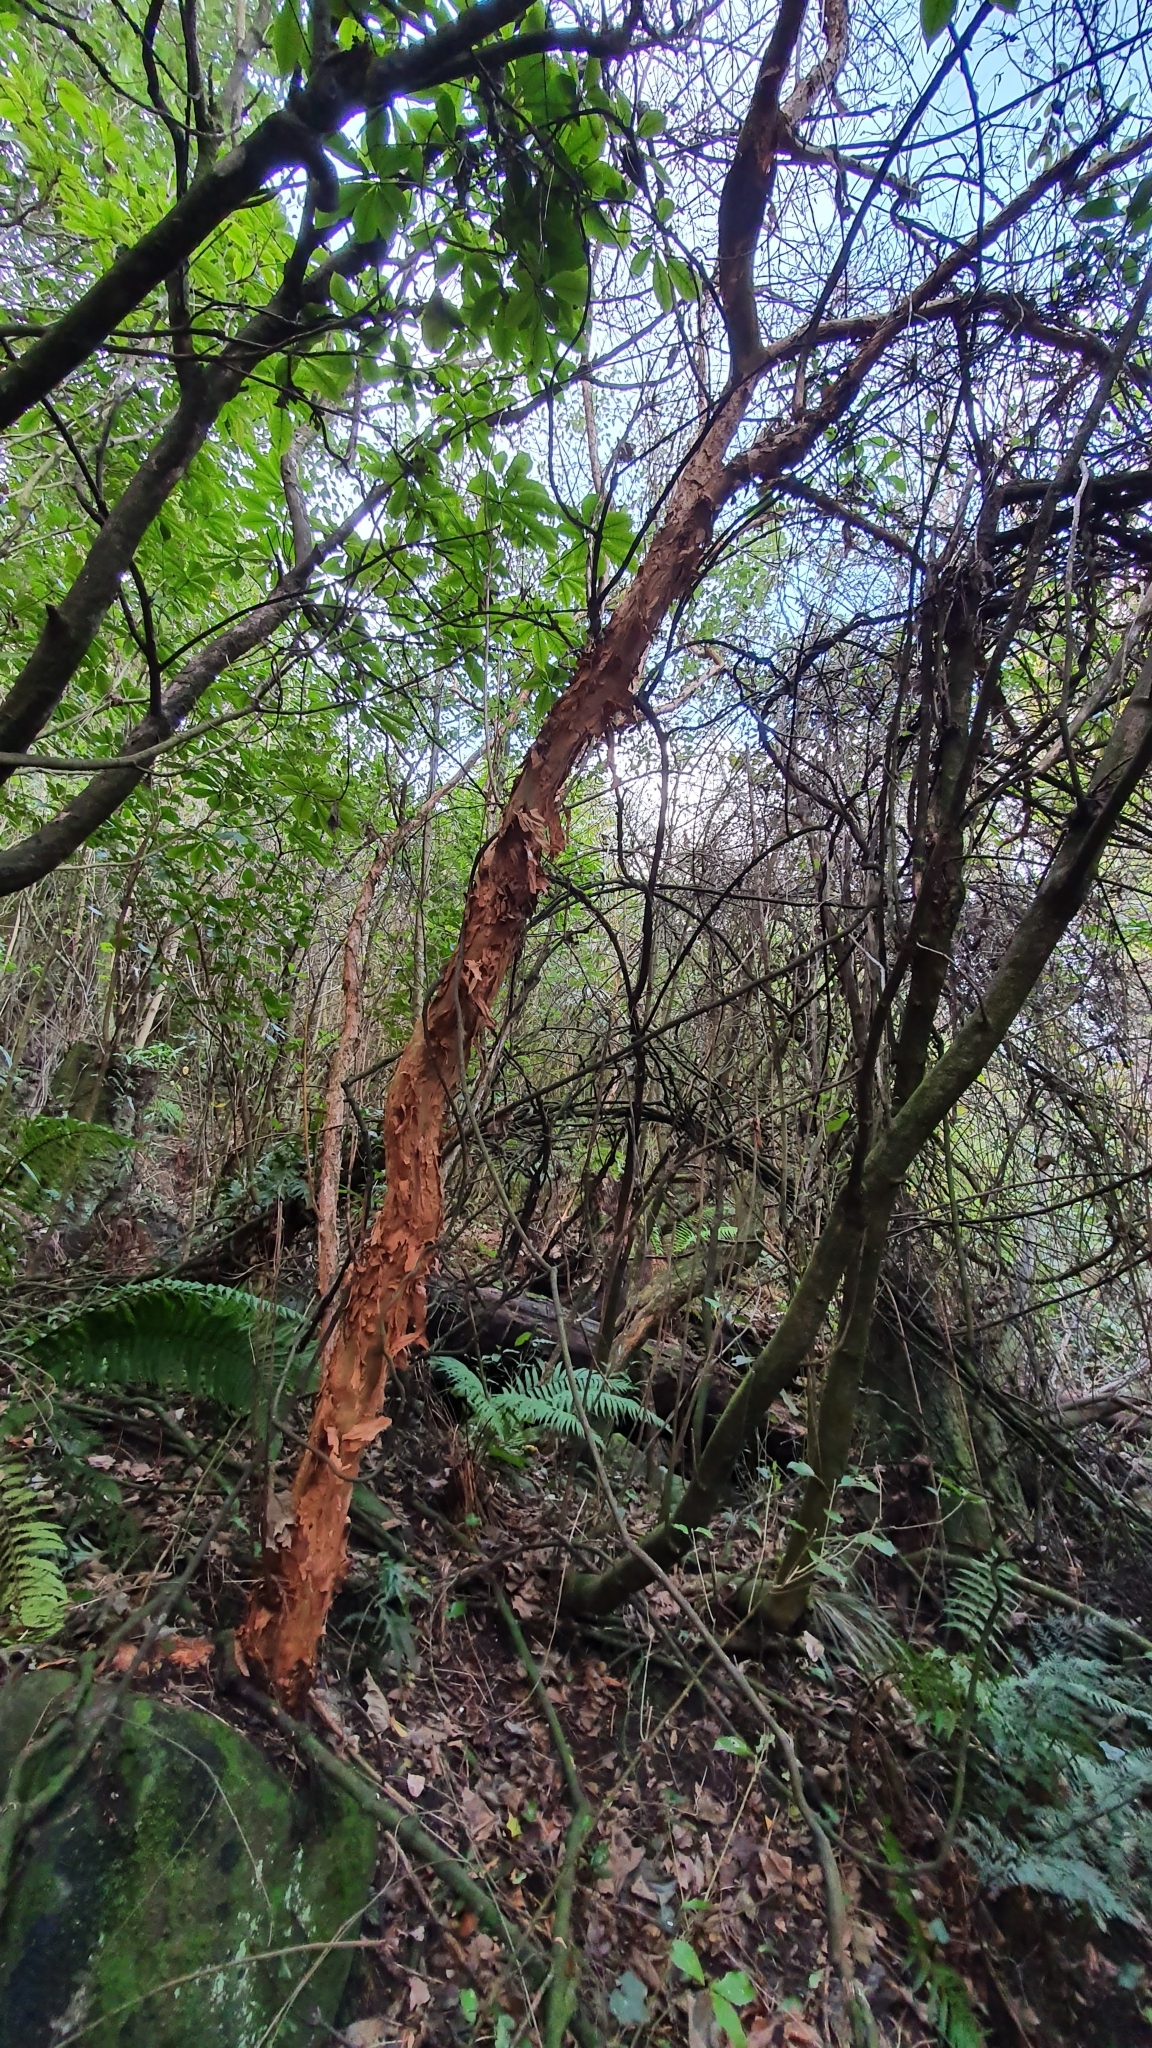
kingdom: Plantae
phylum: Tracheophyta
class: Magnoliopsida
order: Myrtales
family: Onagraceae
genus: Fuchsia
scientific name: Fuchsia excorticata
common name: Tree fuchsia
